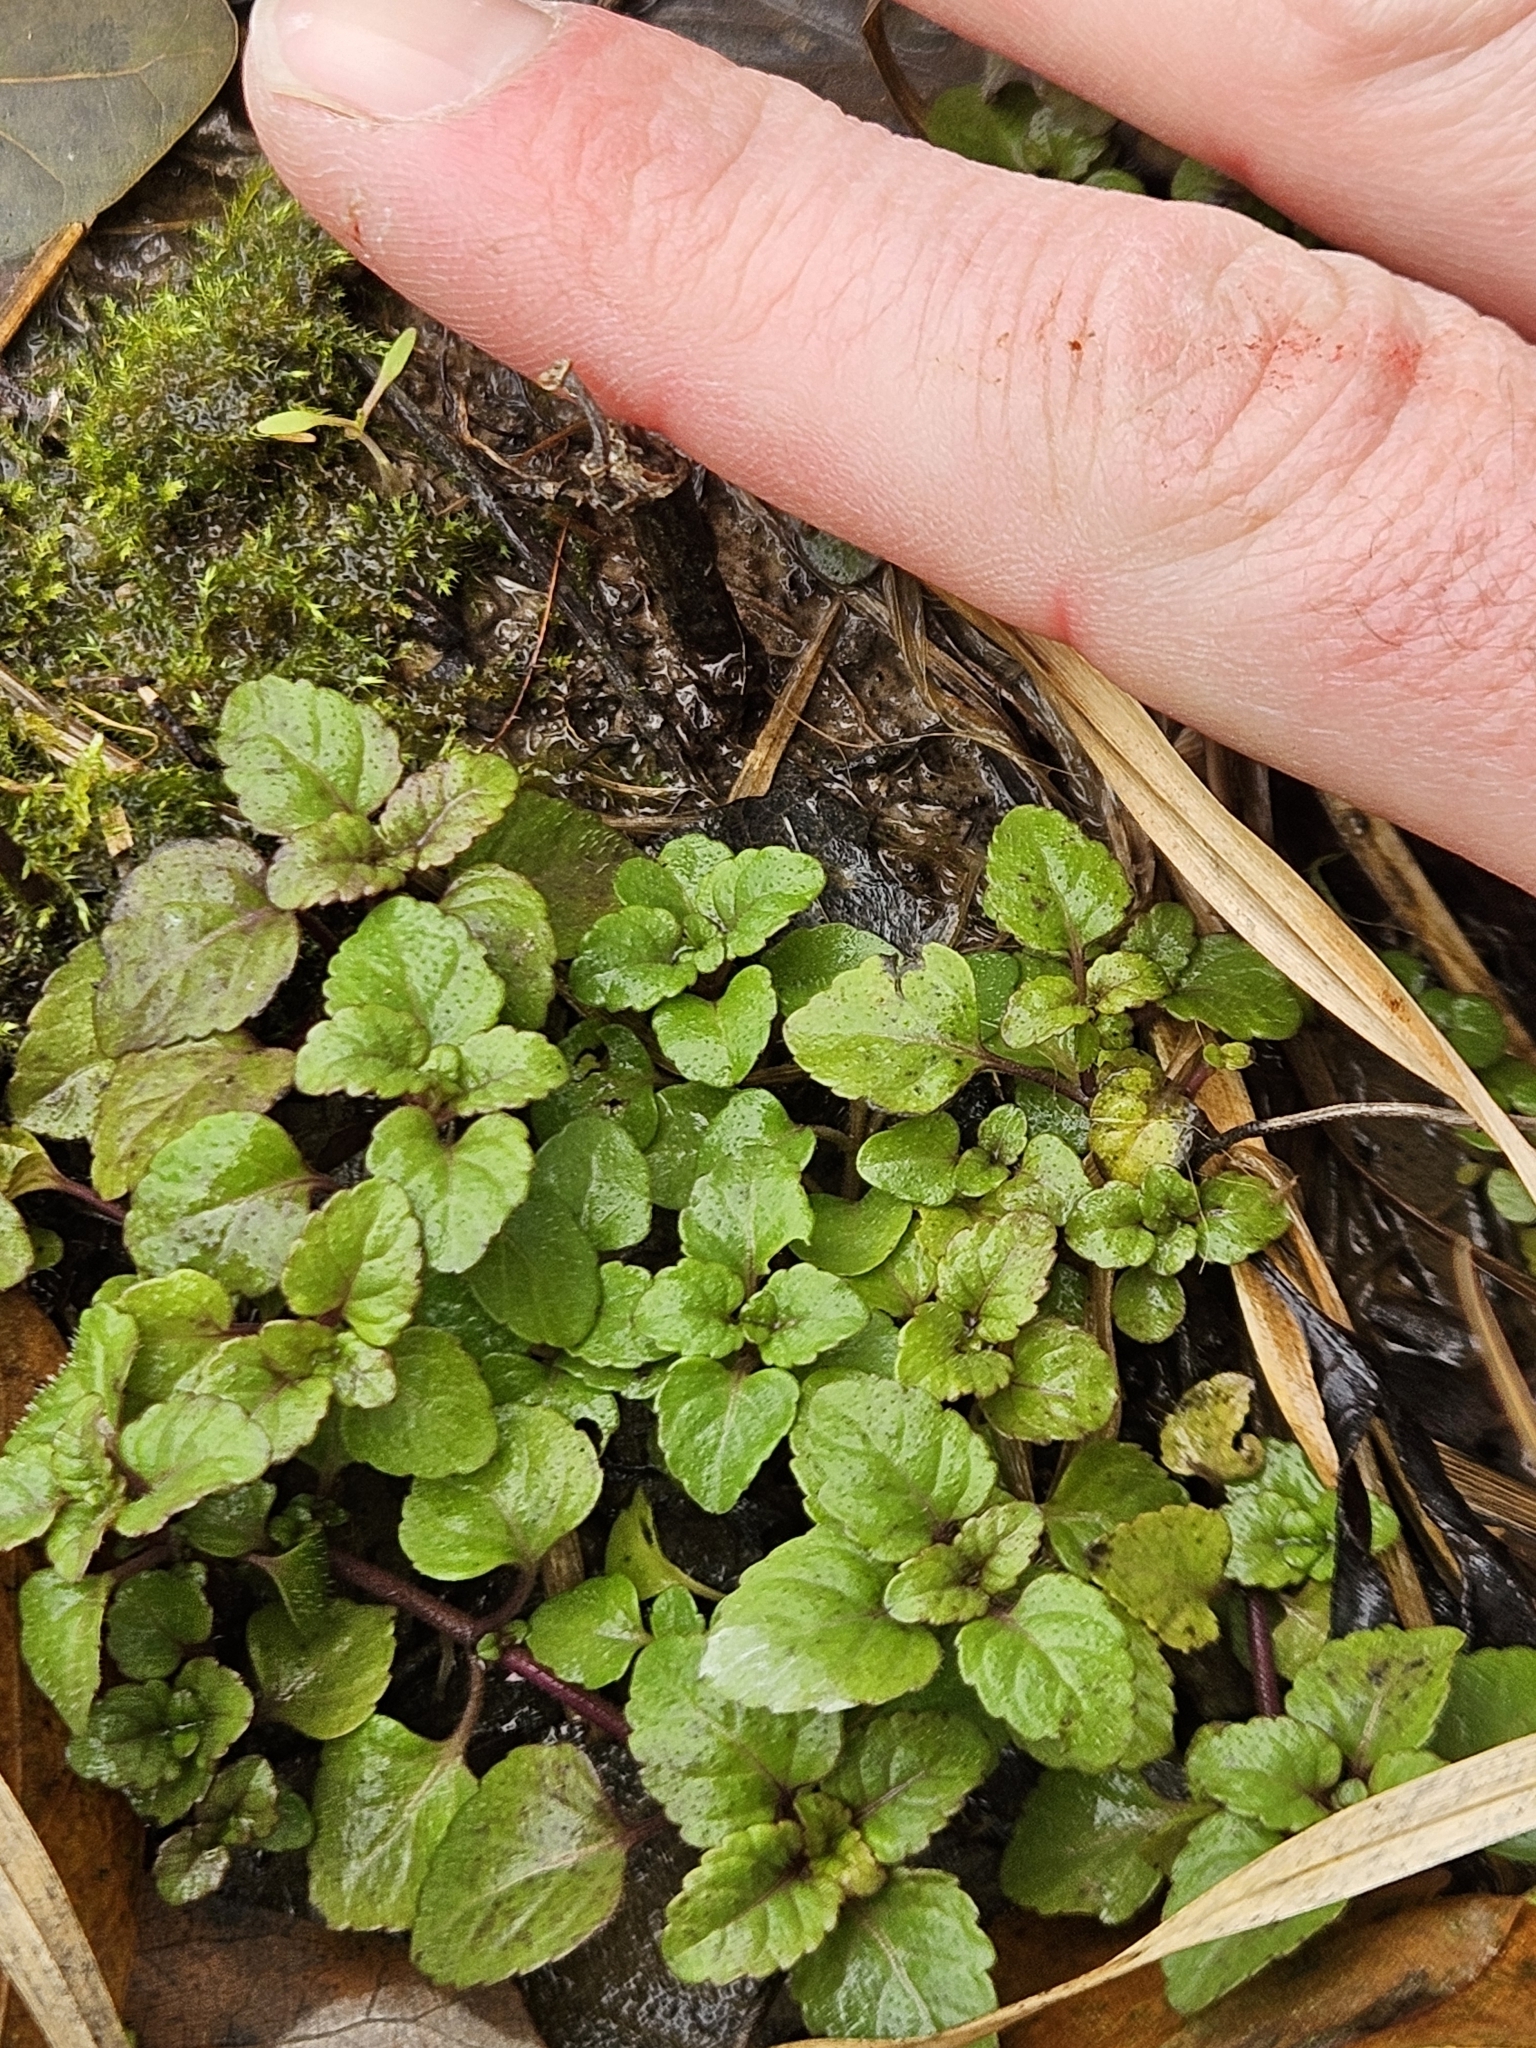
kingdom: Plantae
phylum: Tracheophyta
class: Magnoliopsida
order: Lamiales
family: Lamiaceae
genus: Clinopodium
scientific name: Clinopodium gracile
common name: Slender wild basil
